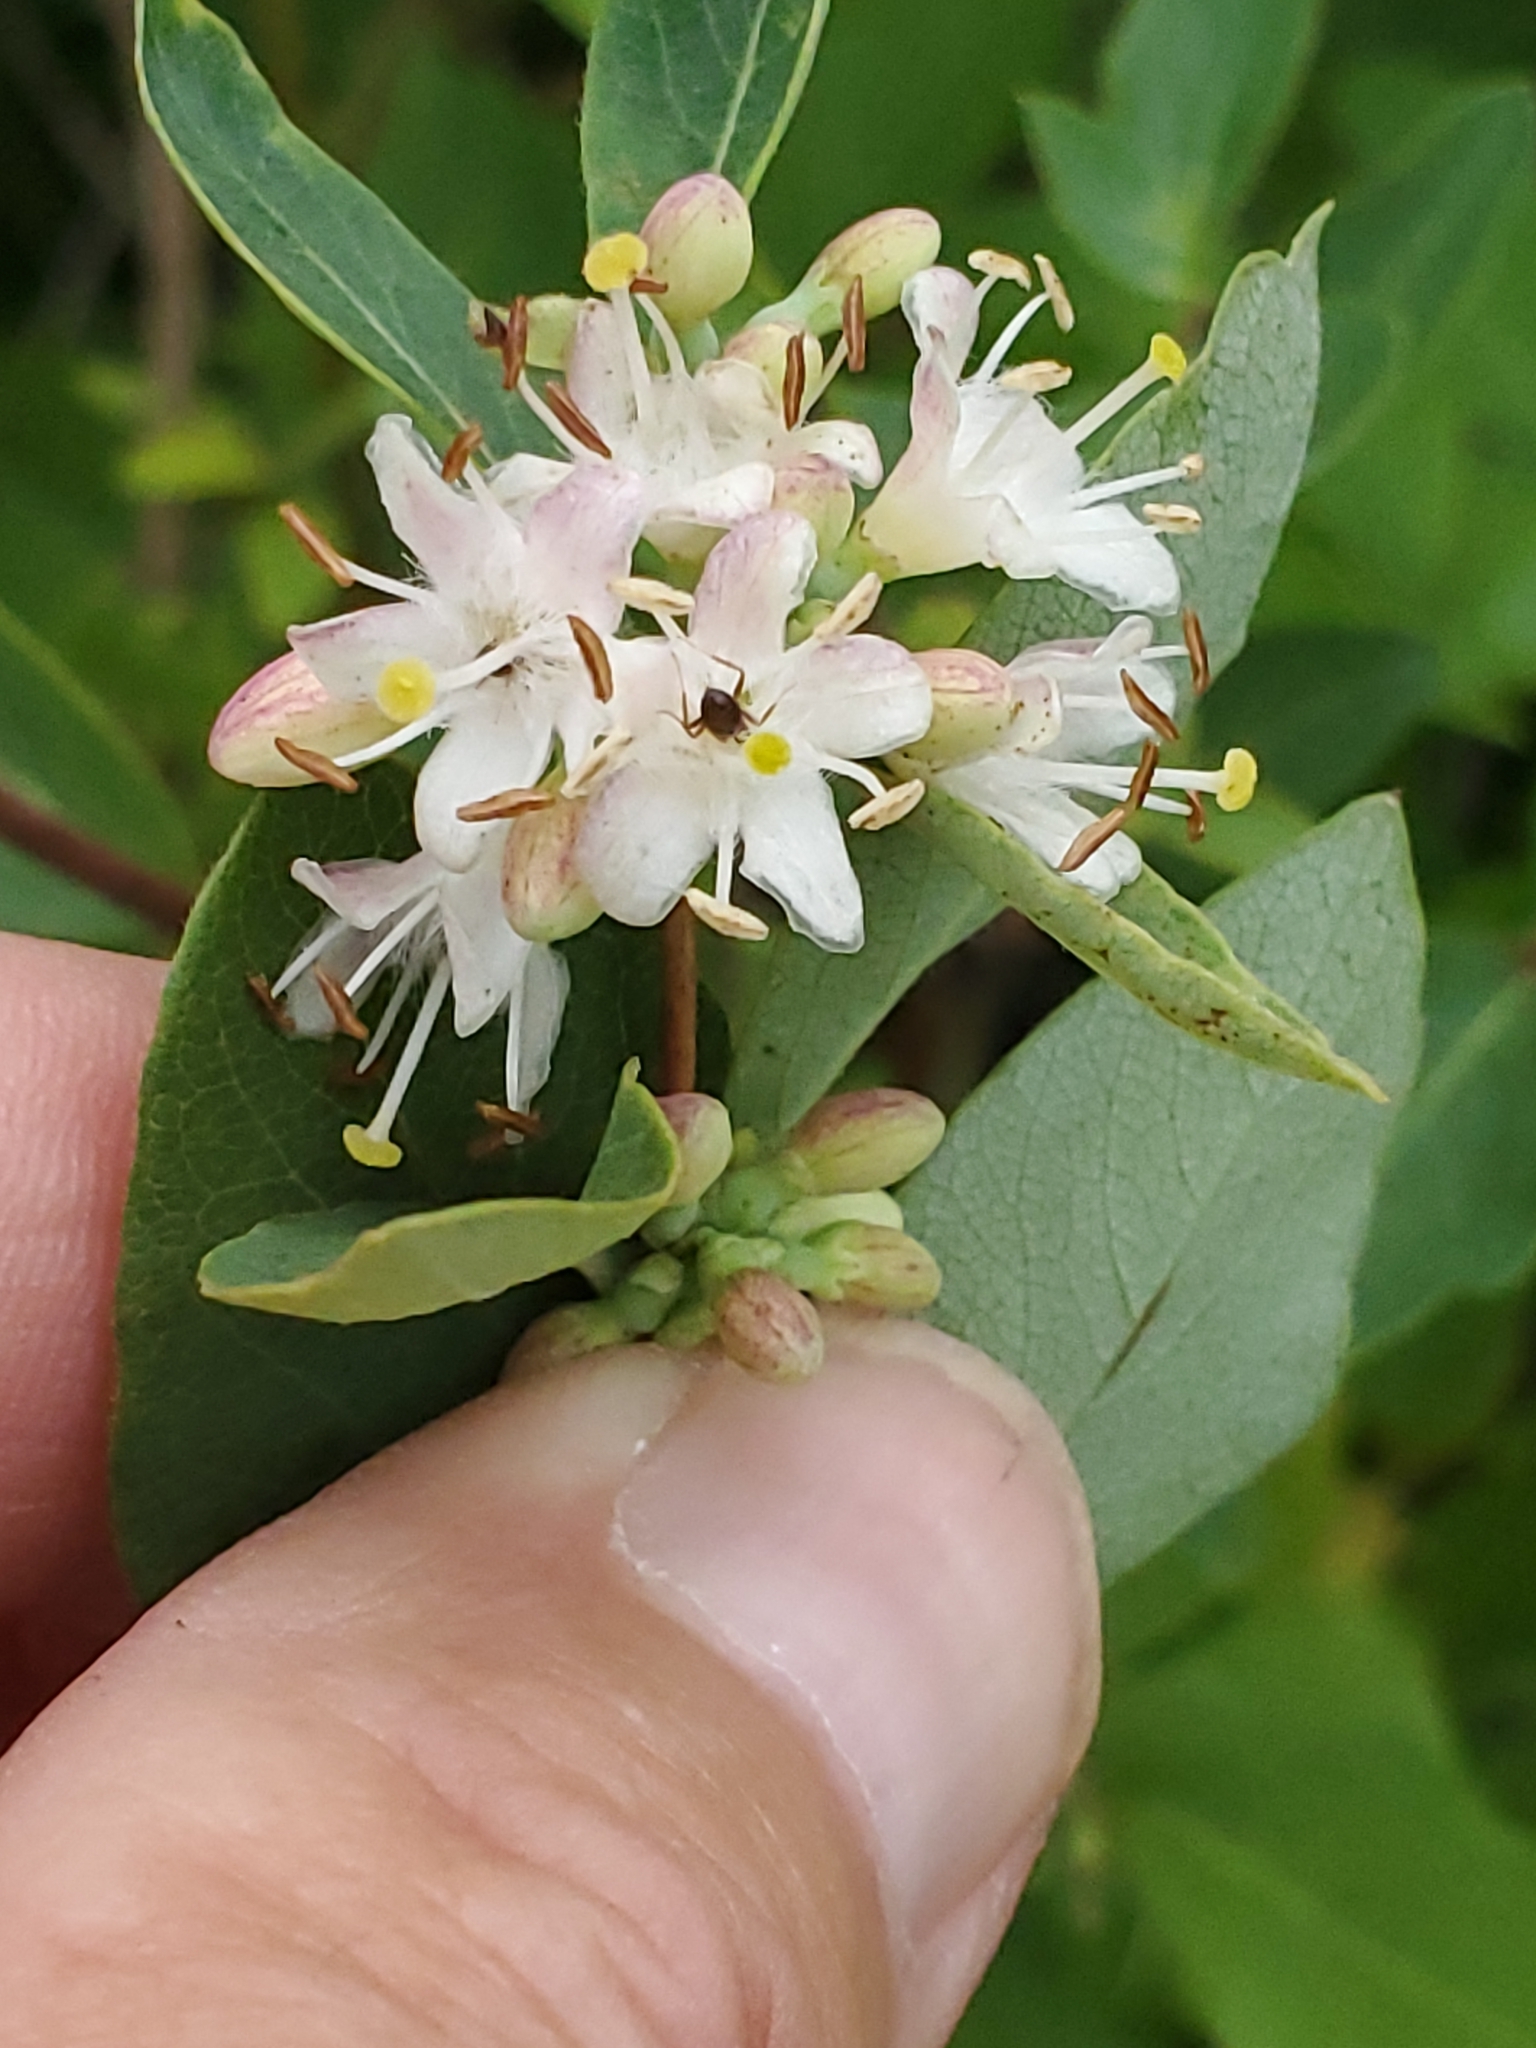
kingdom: Plantae
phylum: Tracheophyta
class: Magnoliopsida
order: Dipsacales
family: Caprifoliaceae
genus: Symphoricarpos
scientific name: Symphoricarpos occidentalis
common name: Wolfberry
